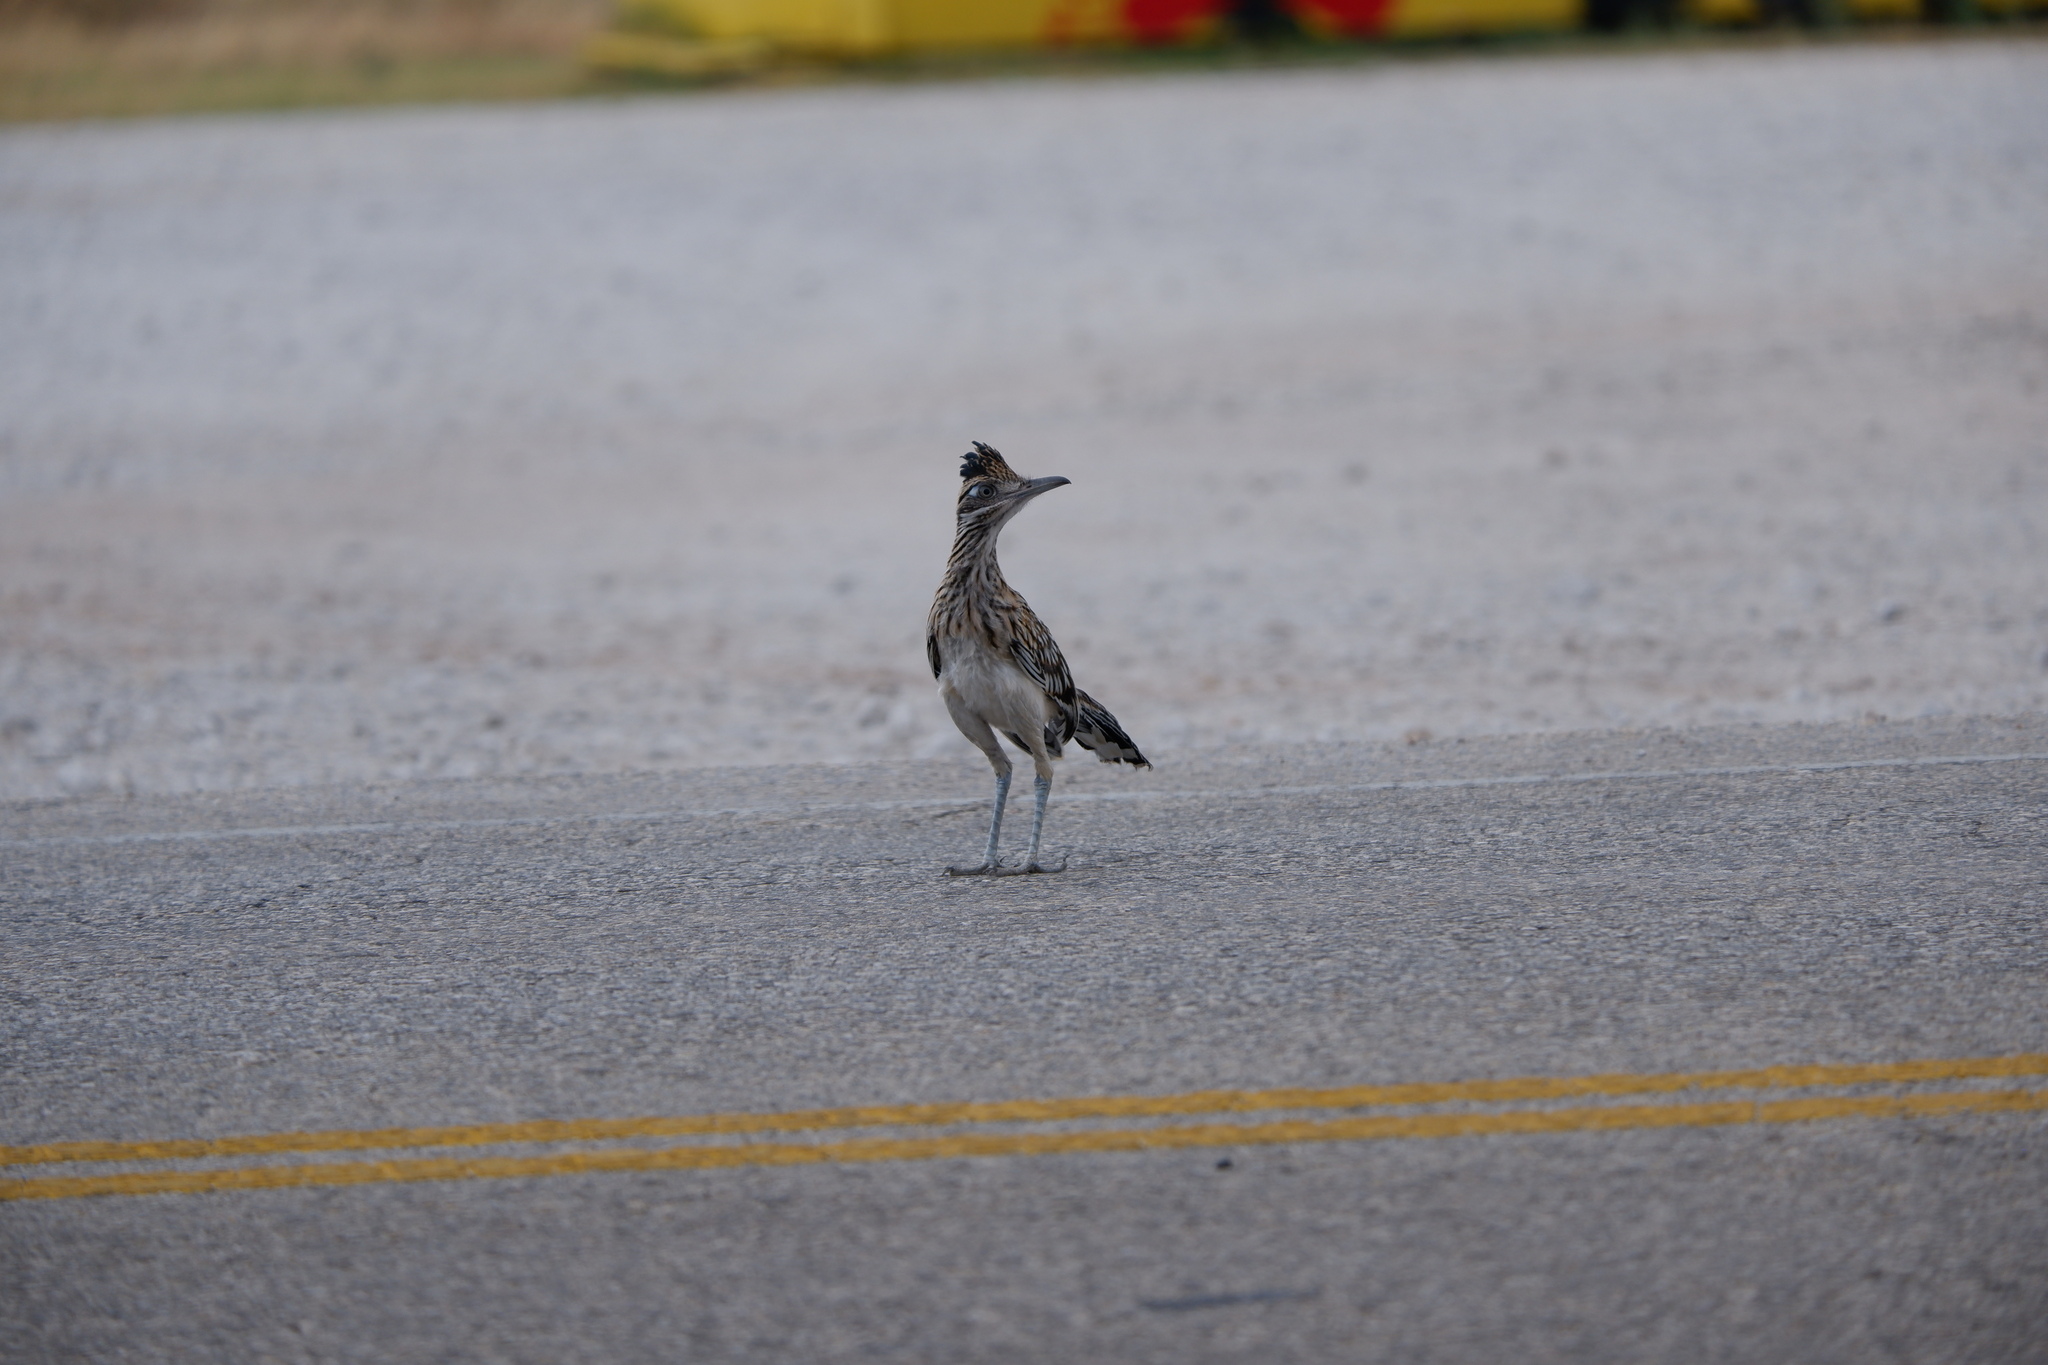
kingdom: Animalia
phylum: Chordata
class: Aves
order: Cuculiformes
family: Cuculidae
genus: Geococcyx
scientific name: Geococcyx californianus
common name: Greater roadrunner
